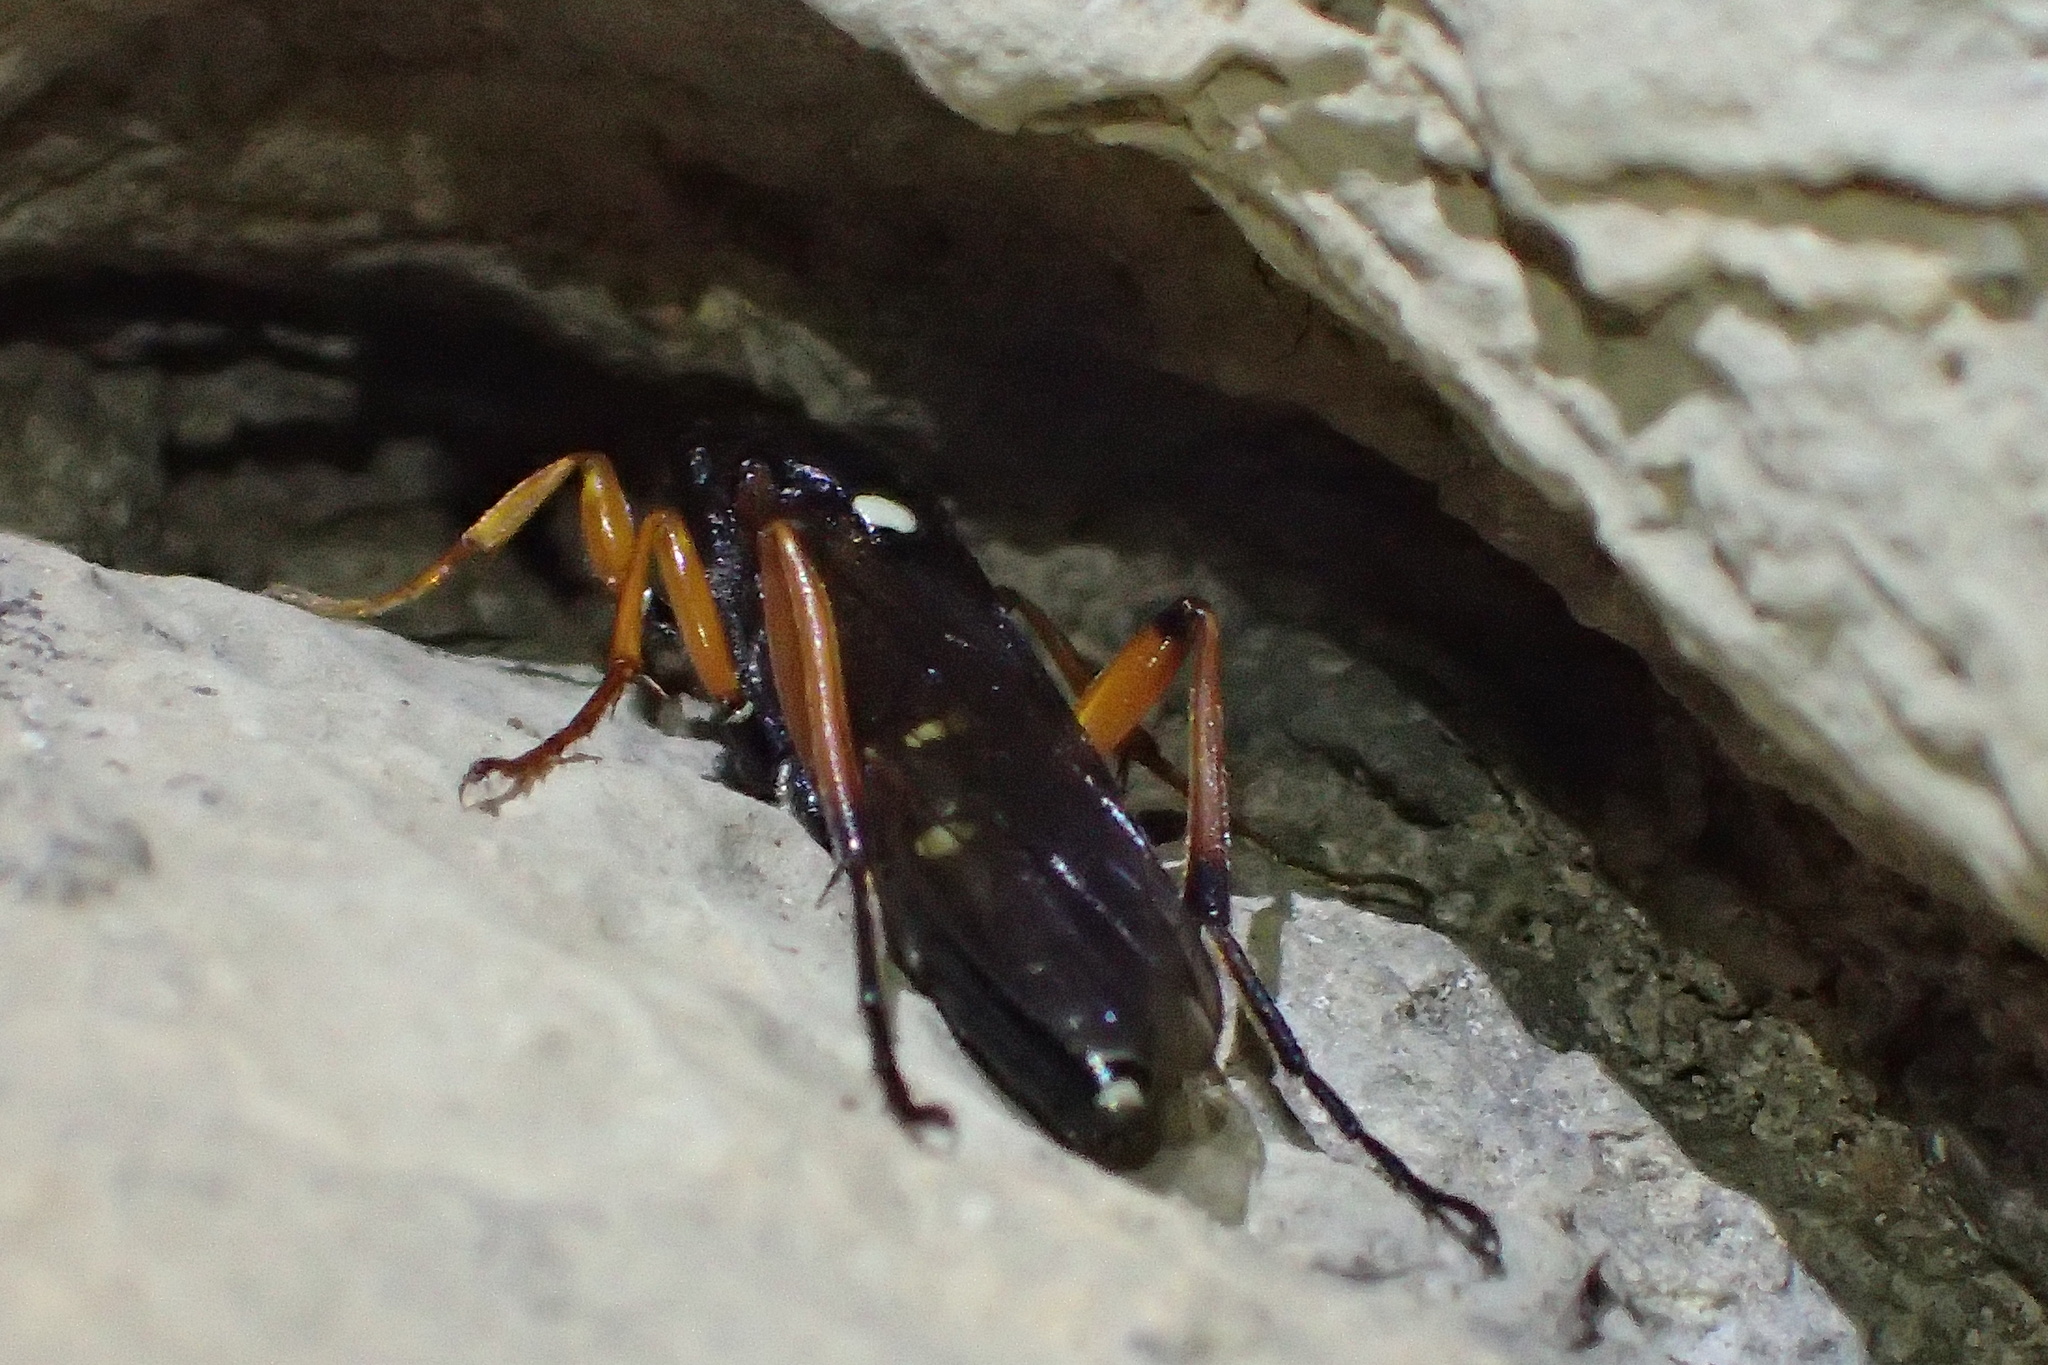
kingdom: Animalia
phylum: Arthropoda
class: Insecta
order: Hymenoptera
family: Ichneumonidae
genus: Diphyus
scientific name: Diphyus quadripunctorius
